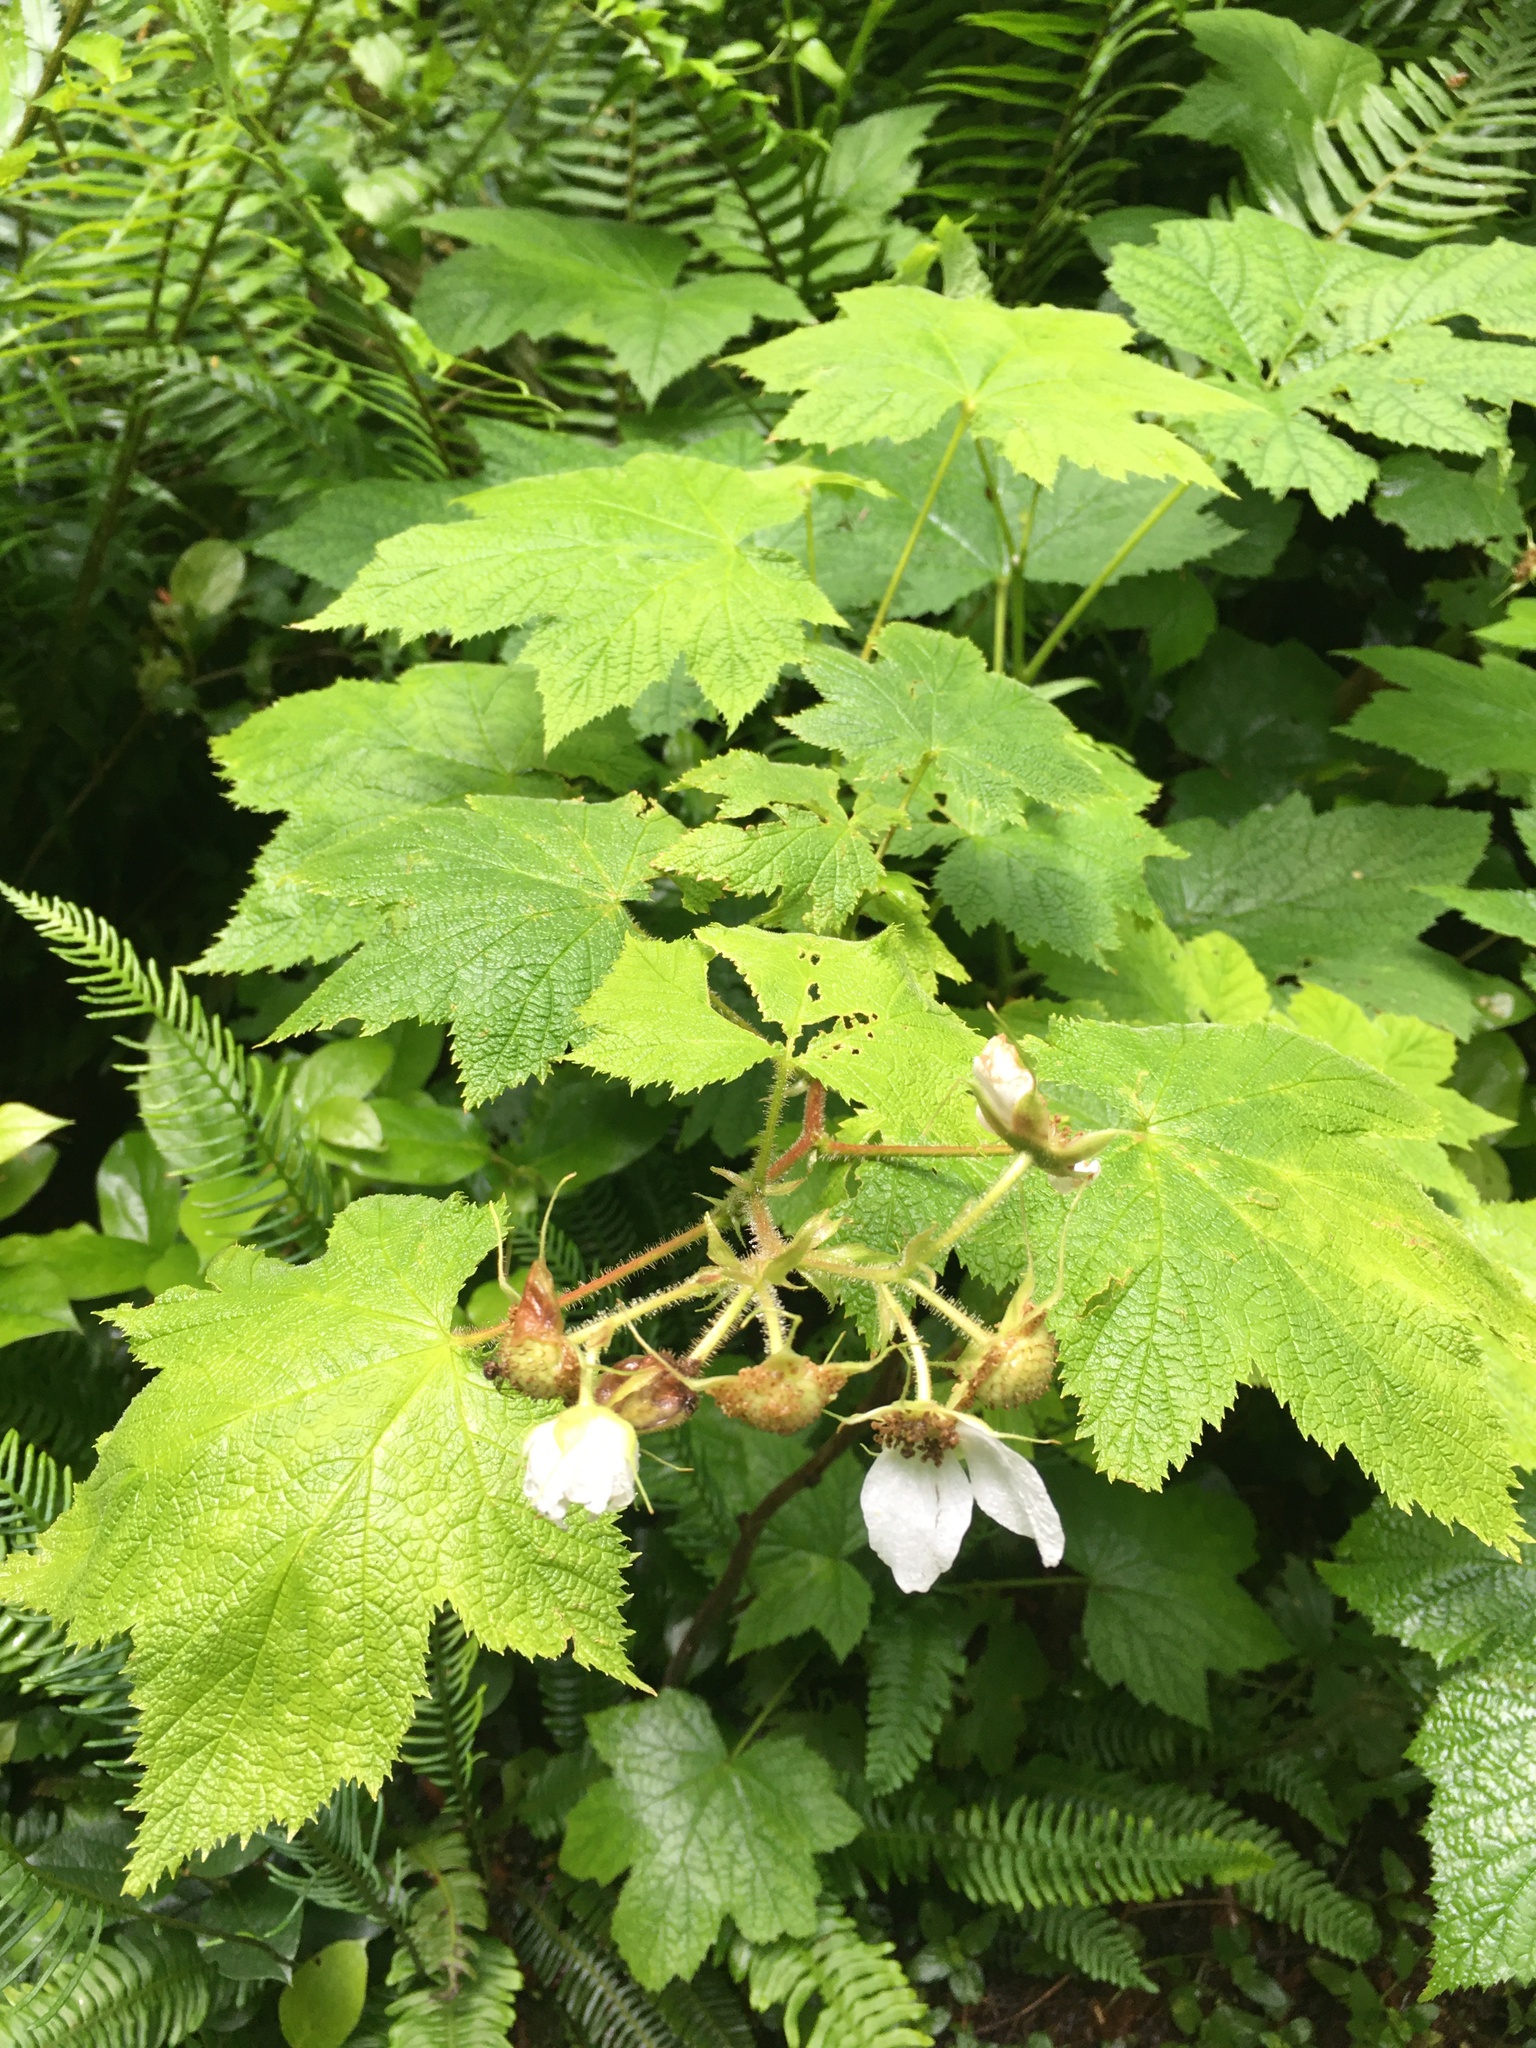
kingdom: Plantae
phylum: Tracheophyta
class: Magnoliopsida
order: Rosales
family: Rosaceae
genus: Rubus
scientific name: Rubus parviflorus
